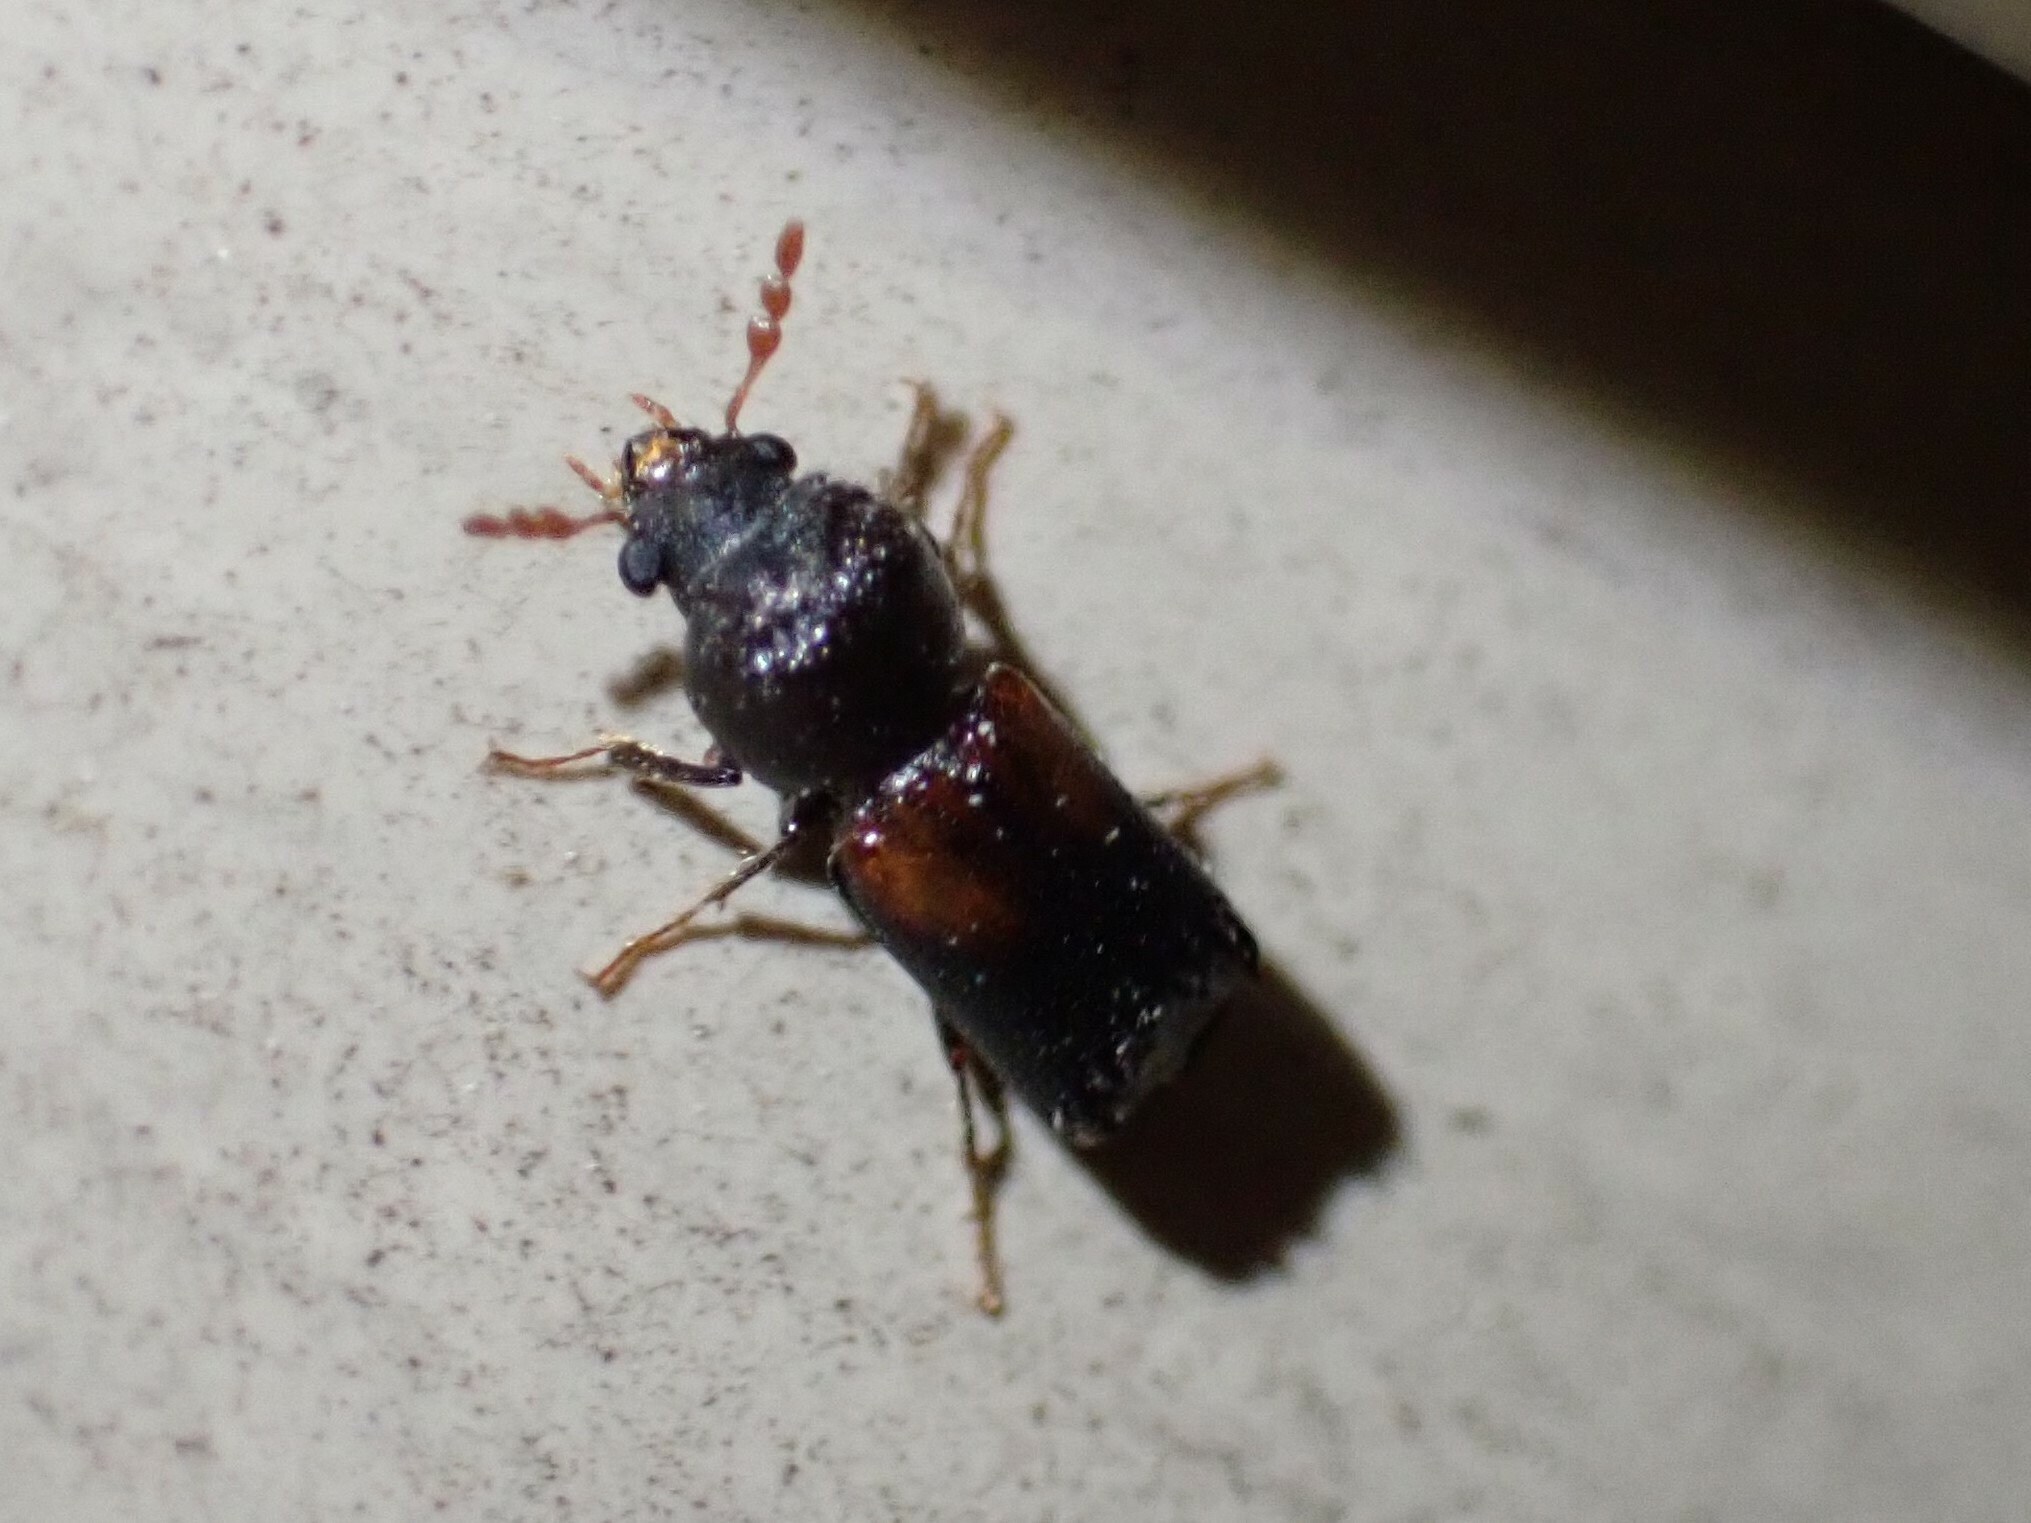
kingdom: Animalia
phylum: Arthropoda
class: Insecta
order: Coleoptera
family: Bostrichidae
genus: Xylobiops
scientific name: Xylobiops basilaris
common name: Red-shouldered bostrichid
